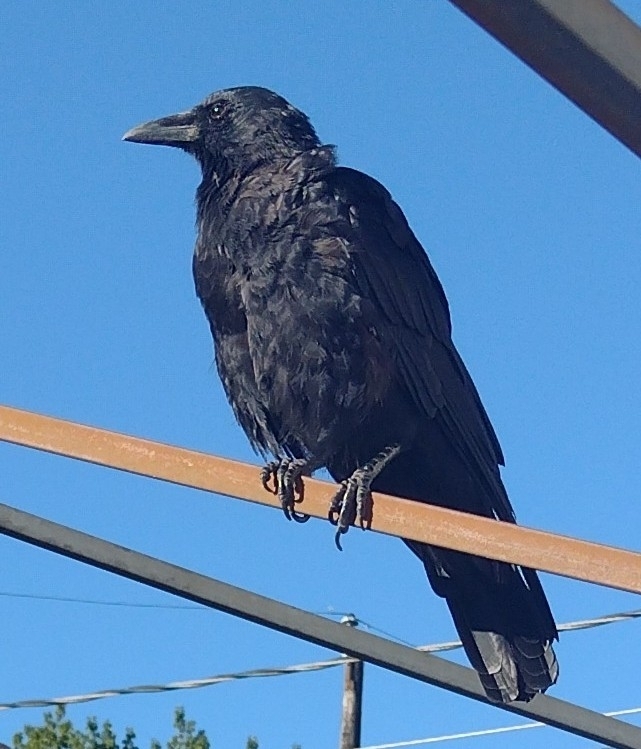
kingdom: Animalia
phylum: Chordata
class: Aves
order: Passeriformes
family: Corvidae
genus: Corvus
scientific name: Corvus brachyrhynchos
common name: American crow
